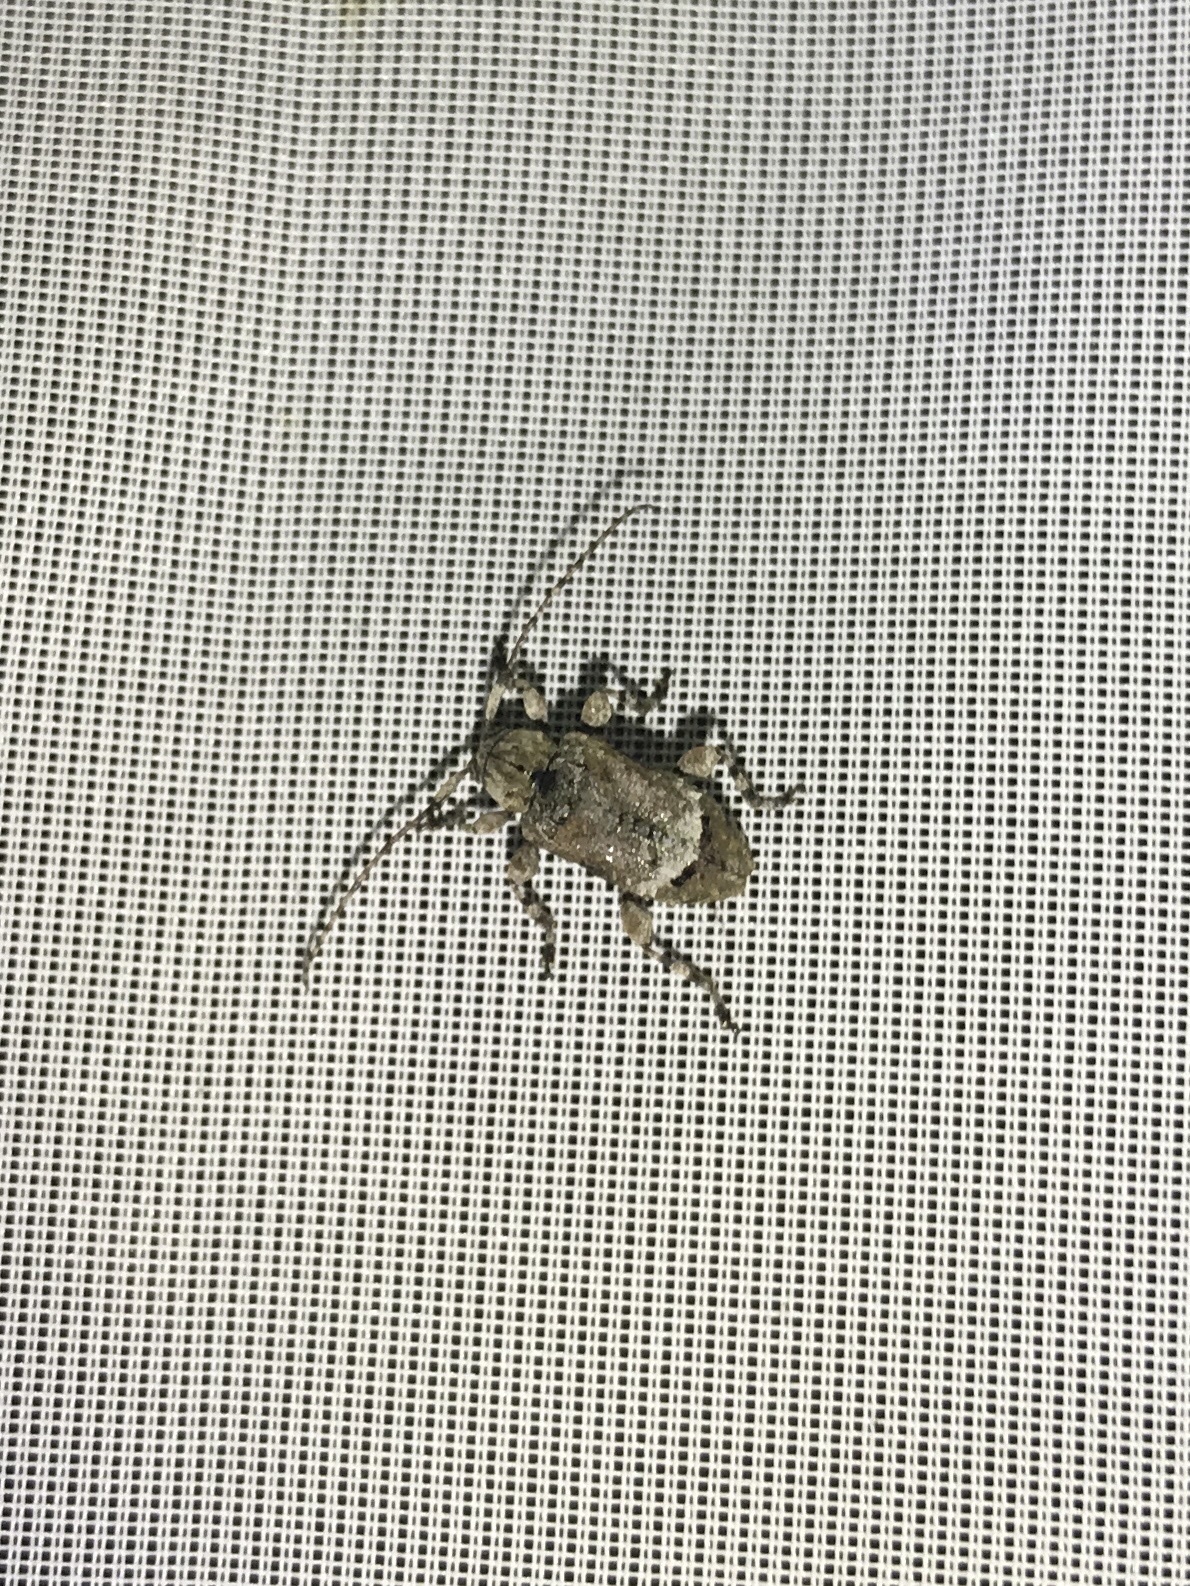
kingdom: Animalia
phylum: Arthropoda
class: Insecta
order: Coleoptera
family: Cerambycidae
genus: Leptostylus
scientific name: Leptostylus transversus
